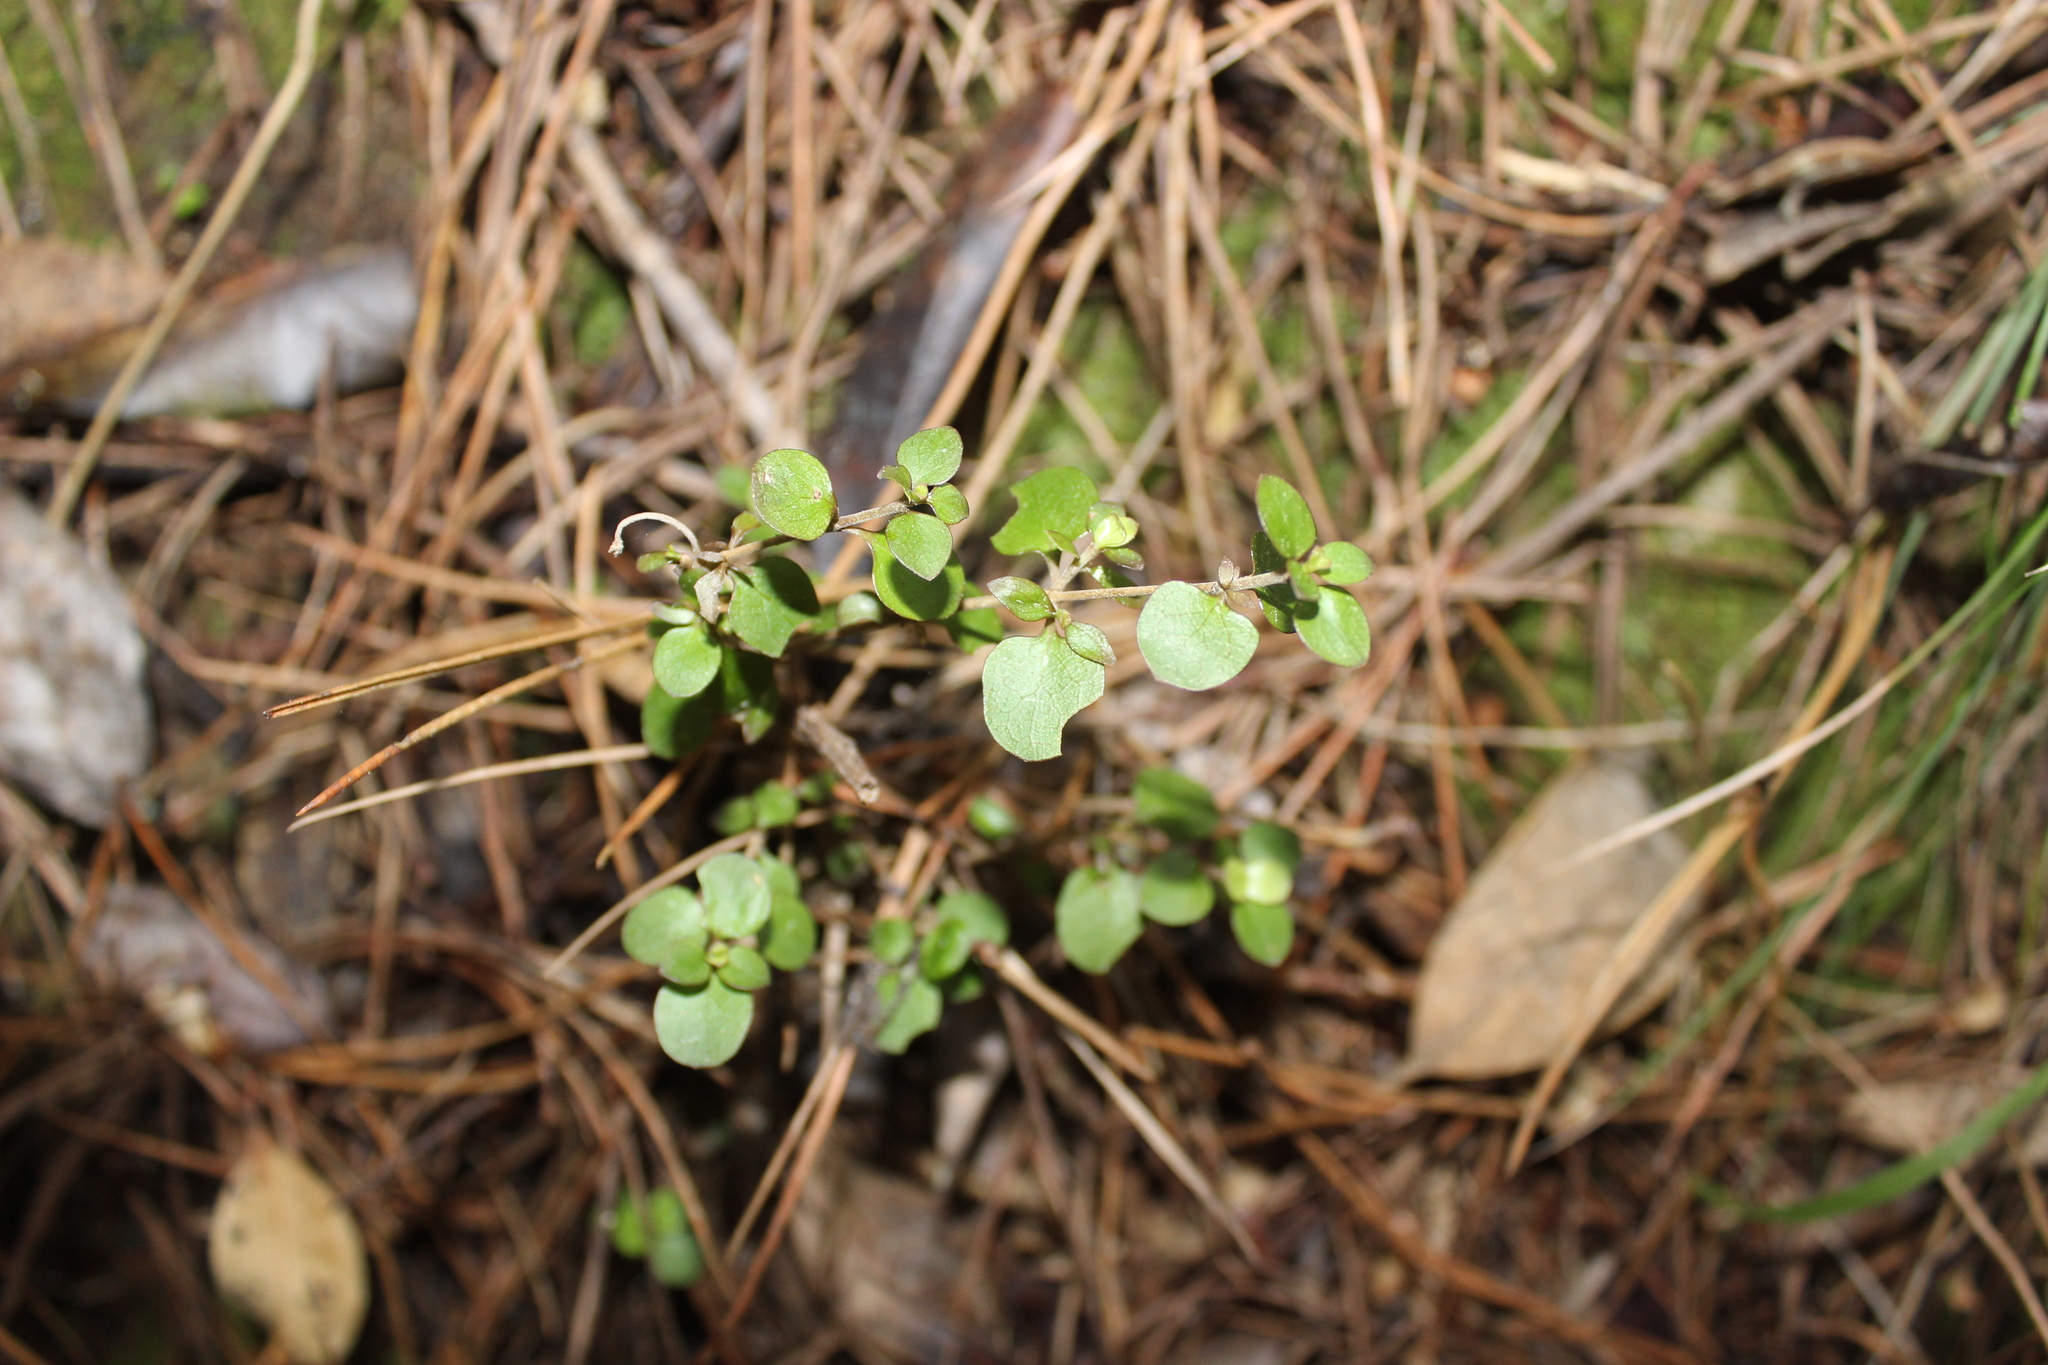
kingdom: Plantae
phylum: Tracheophyta
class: Magnoliopsida
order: Gentianales
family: Rubiaceae
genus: Coprosma
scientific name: Coprosma rhamnoides
